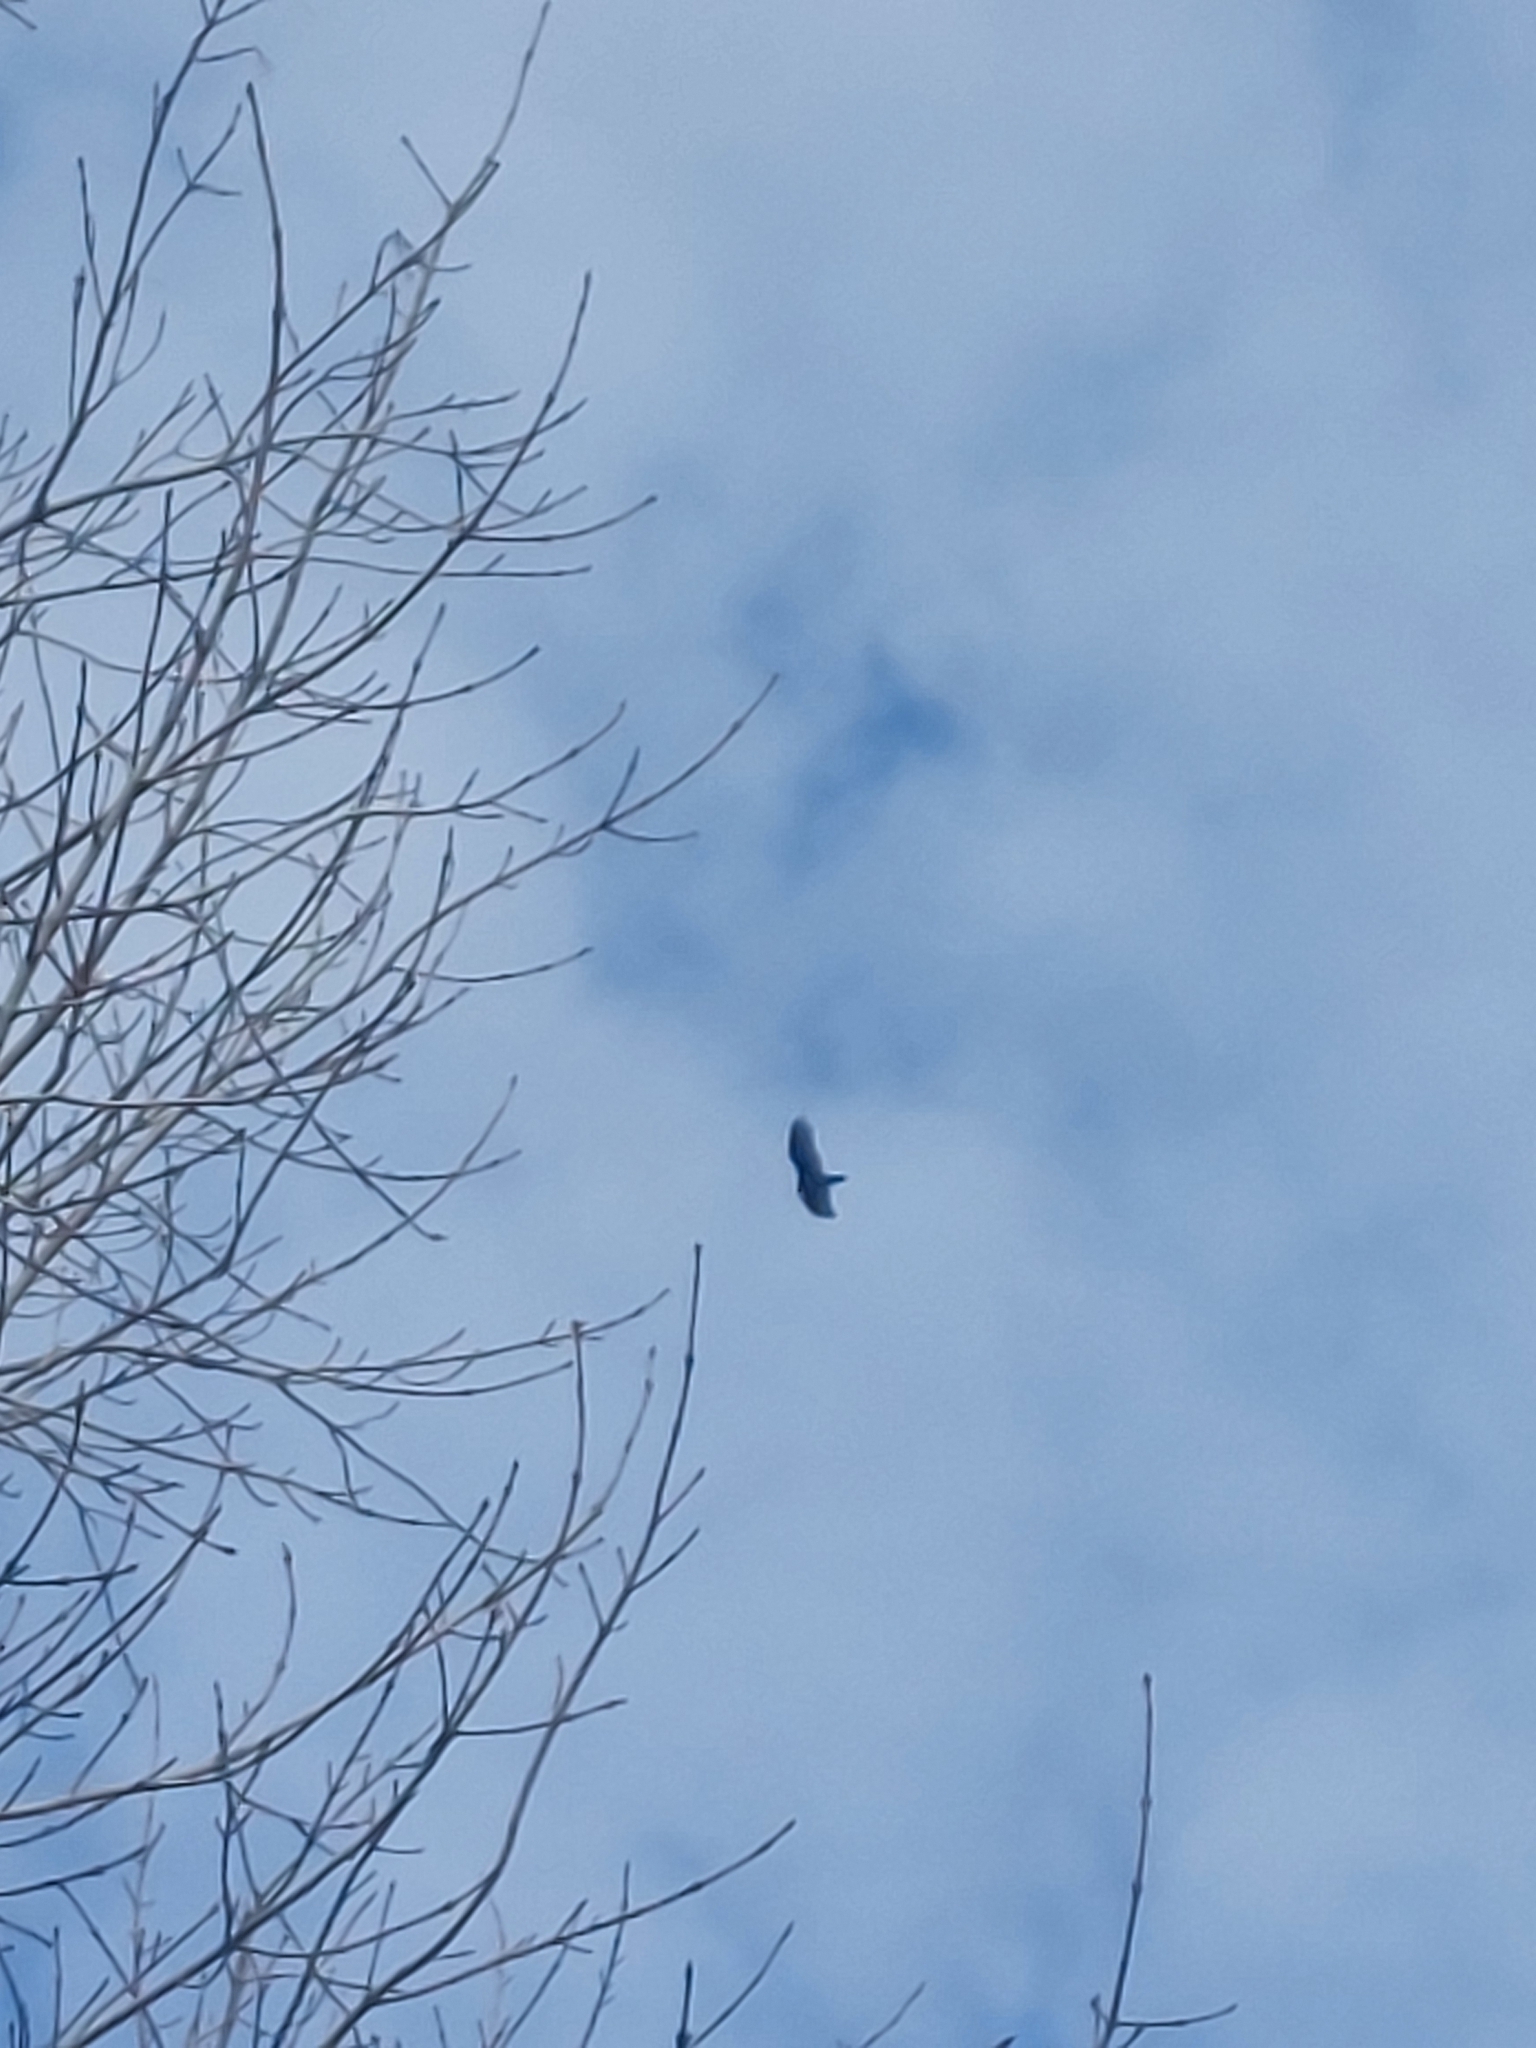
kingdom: Animalia
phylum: Chordata
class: Aves
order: Accipitriformes
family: Cathartidae
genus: Cathartes
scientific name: Cathartes aura
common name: Turkey vulture
